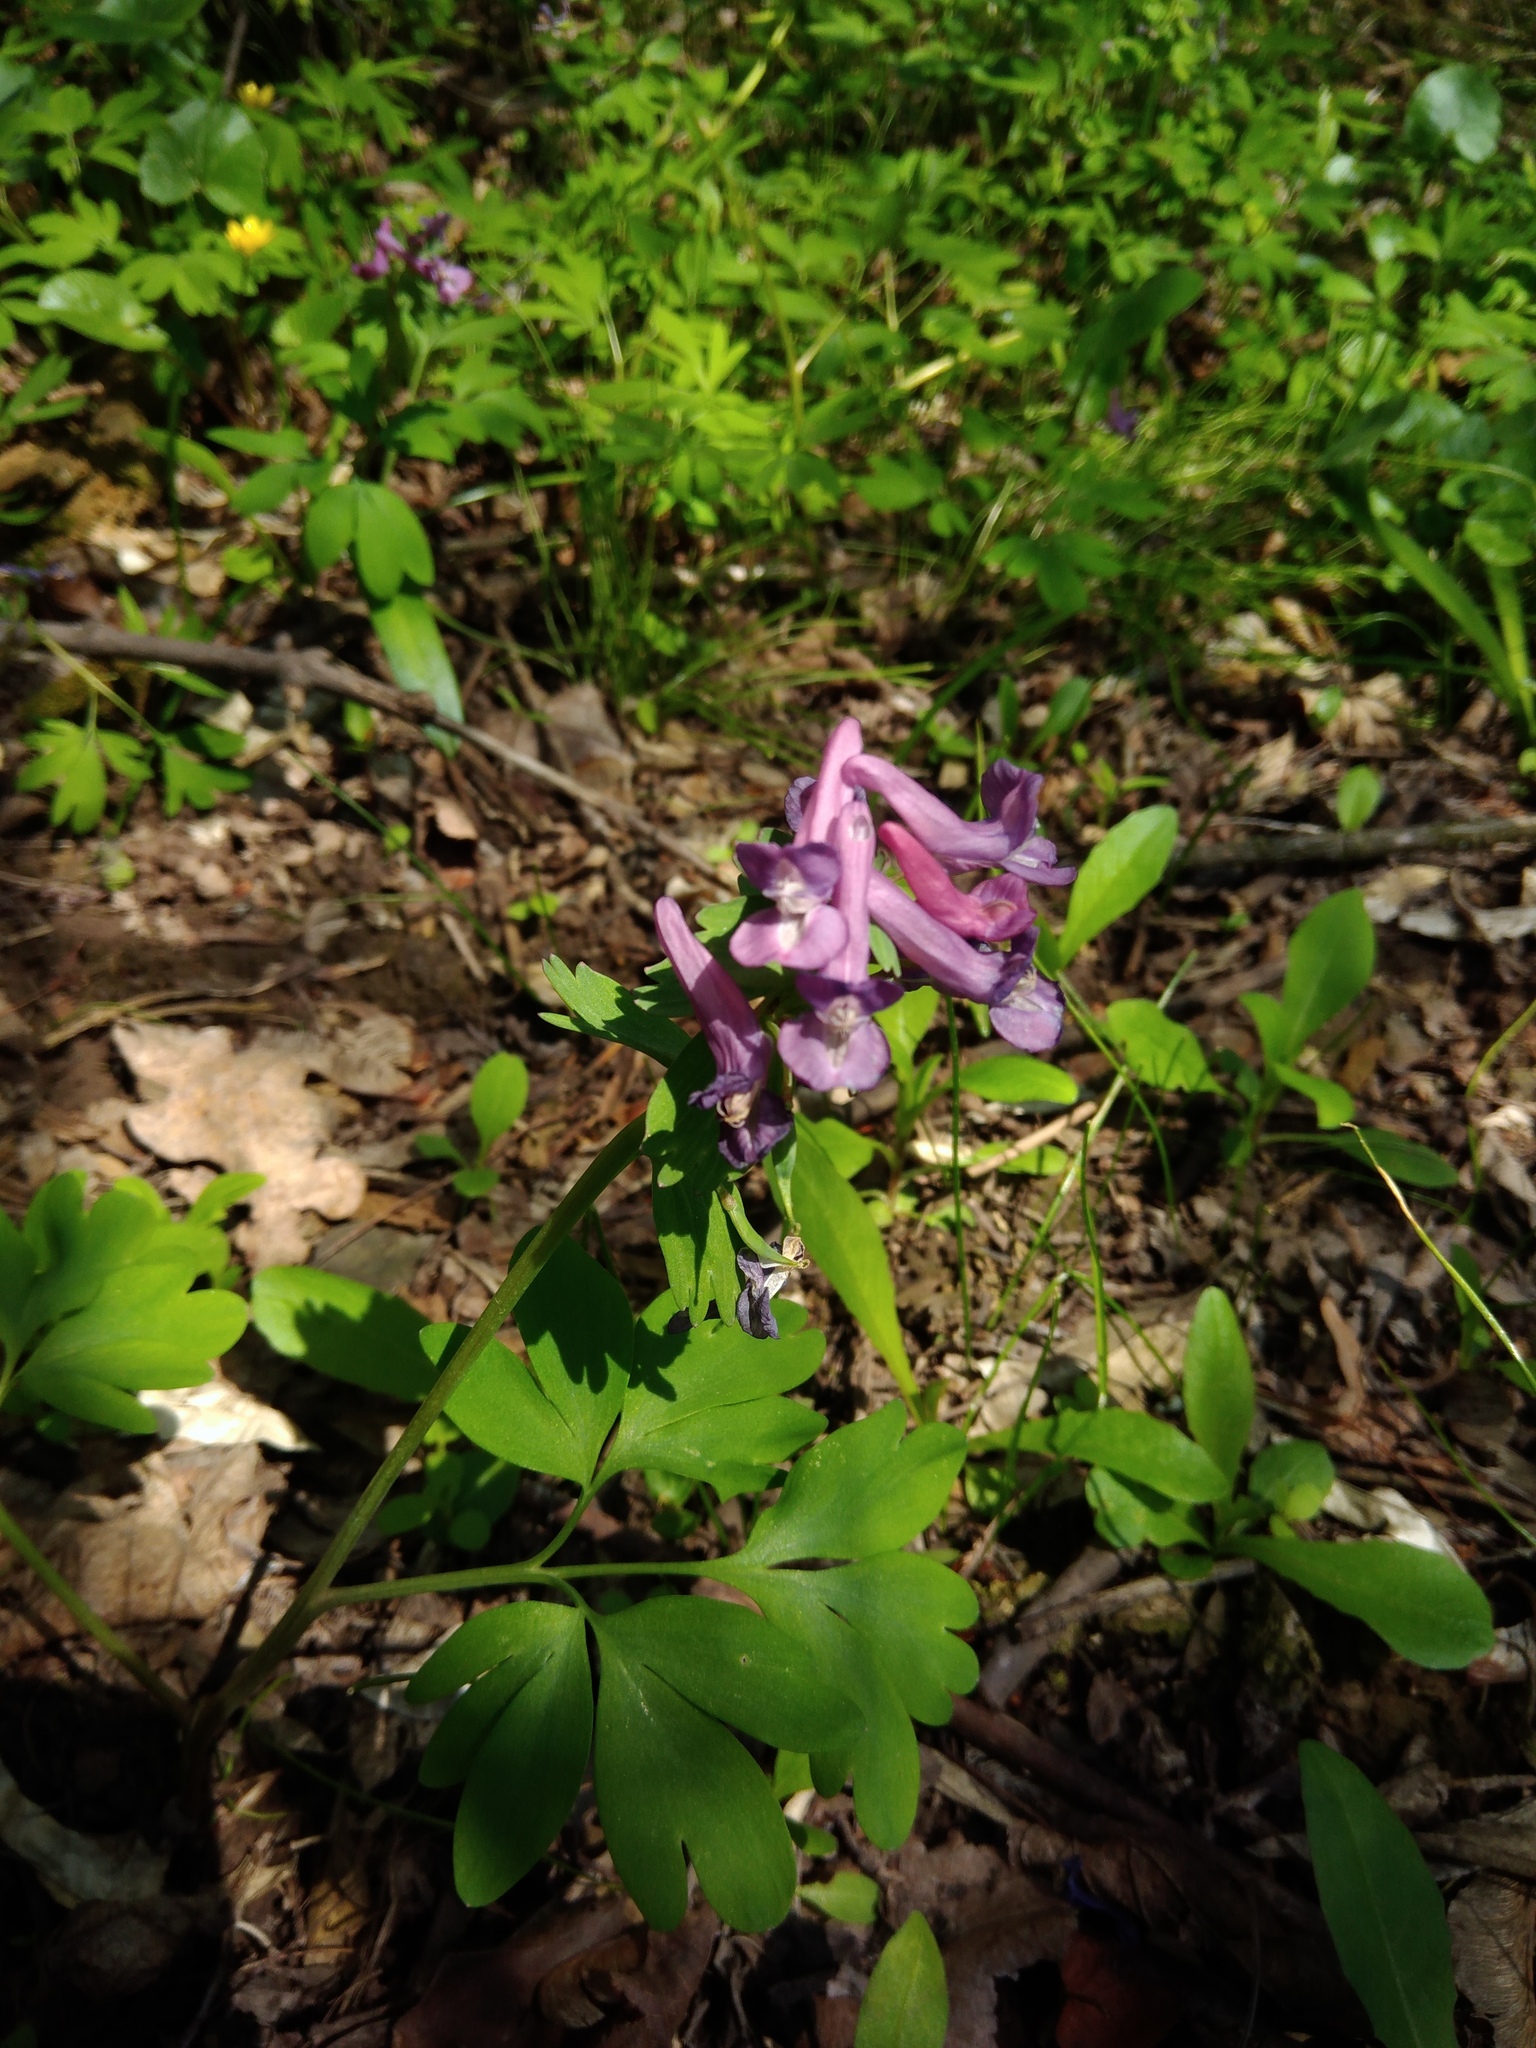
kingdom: Plantae
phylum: Tracheophyta
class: Magnoliopsida
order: Ranunculales
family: Papaveraceae
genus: Corydalis
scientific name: Corydalis solida
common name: Bird-in-a-bush
